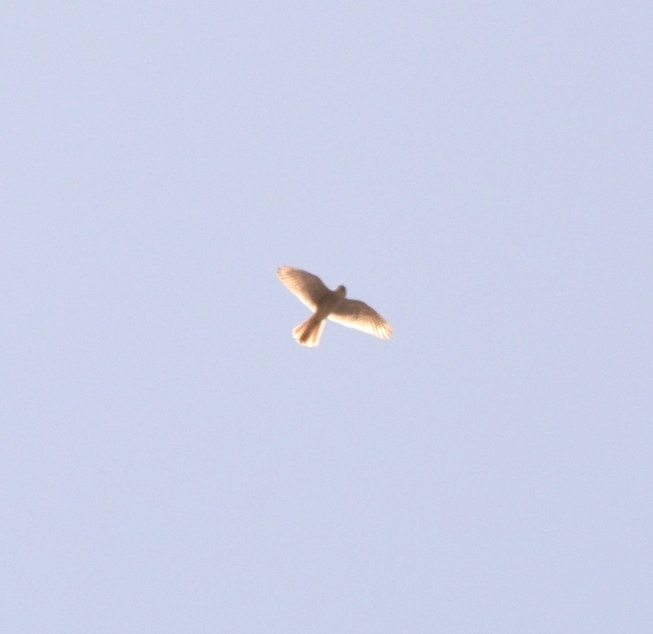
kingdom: Animalia
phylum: Chordata
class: Aves
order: Falconiformes
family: Falconidae
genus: Falco
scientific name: Falco sparverius
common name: American kestrel
